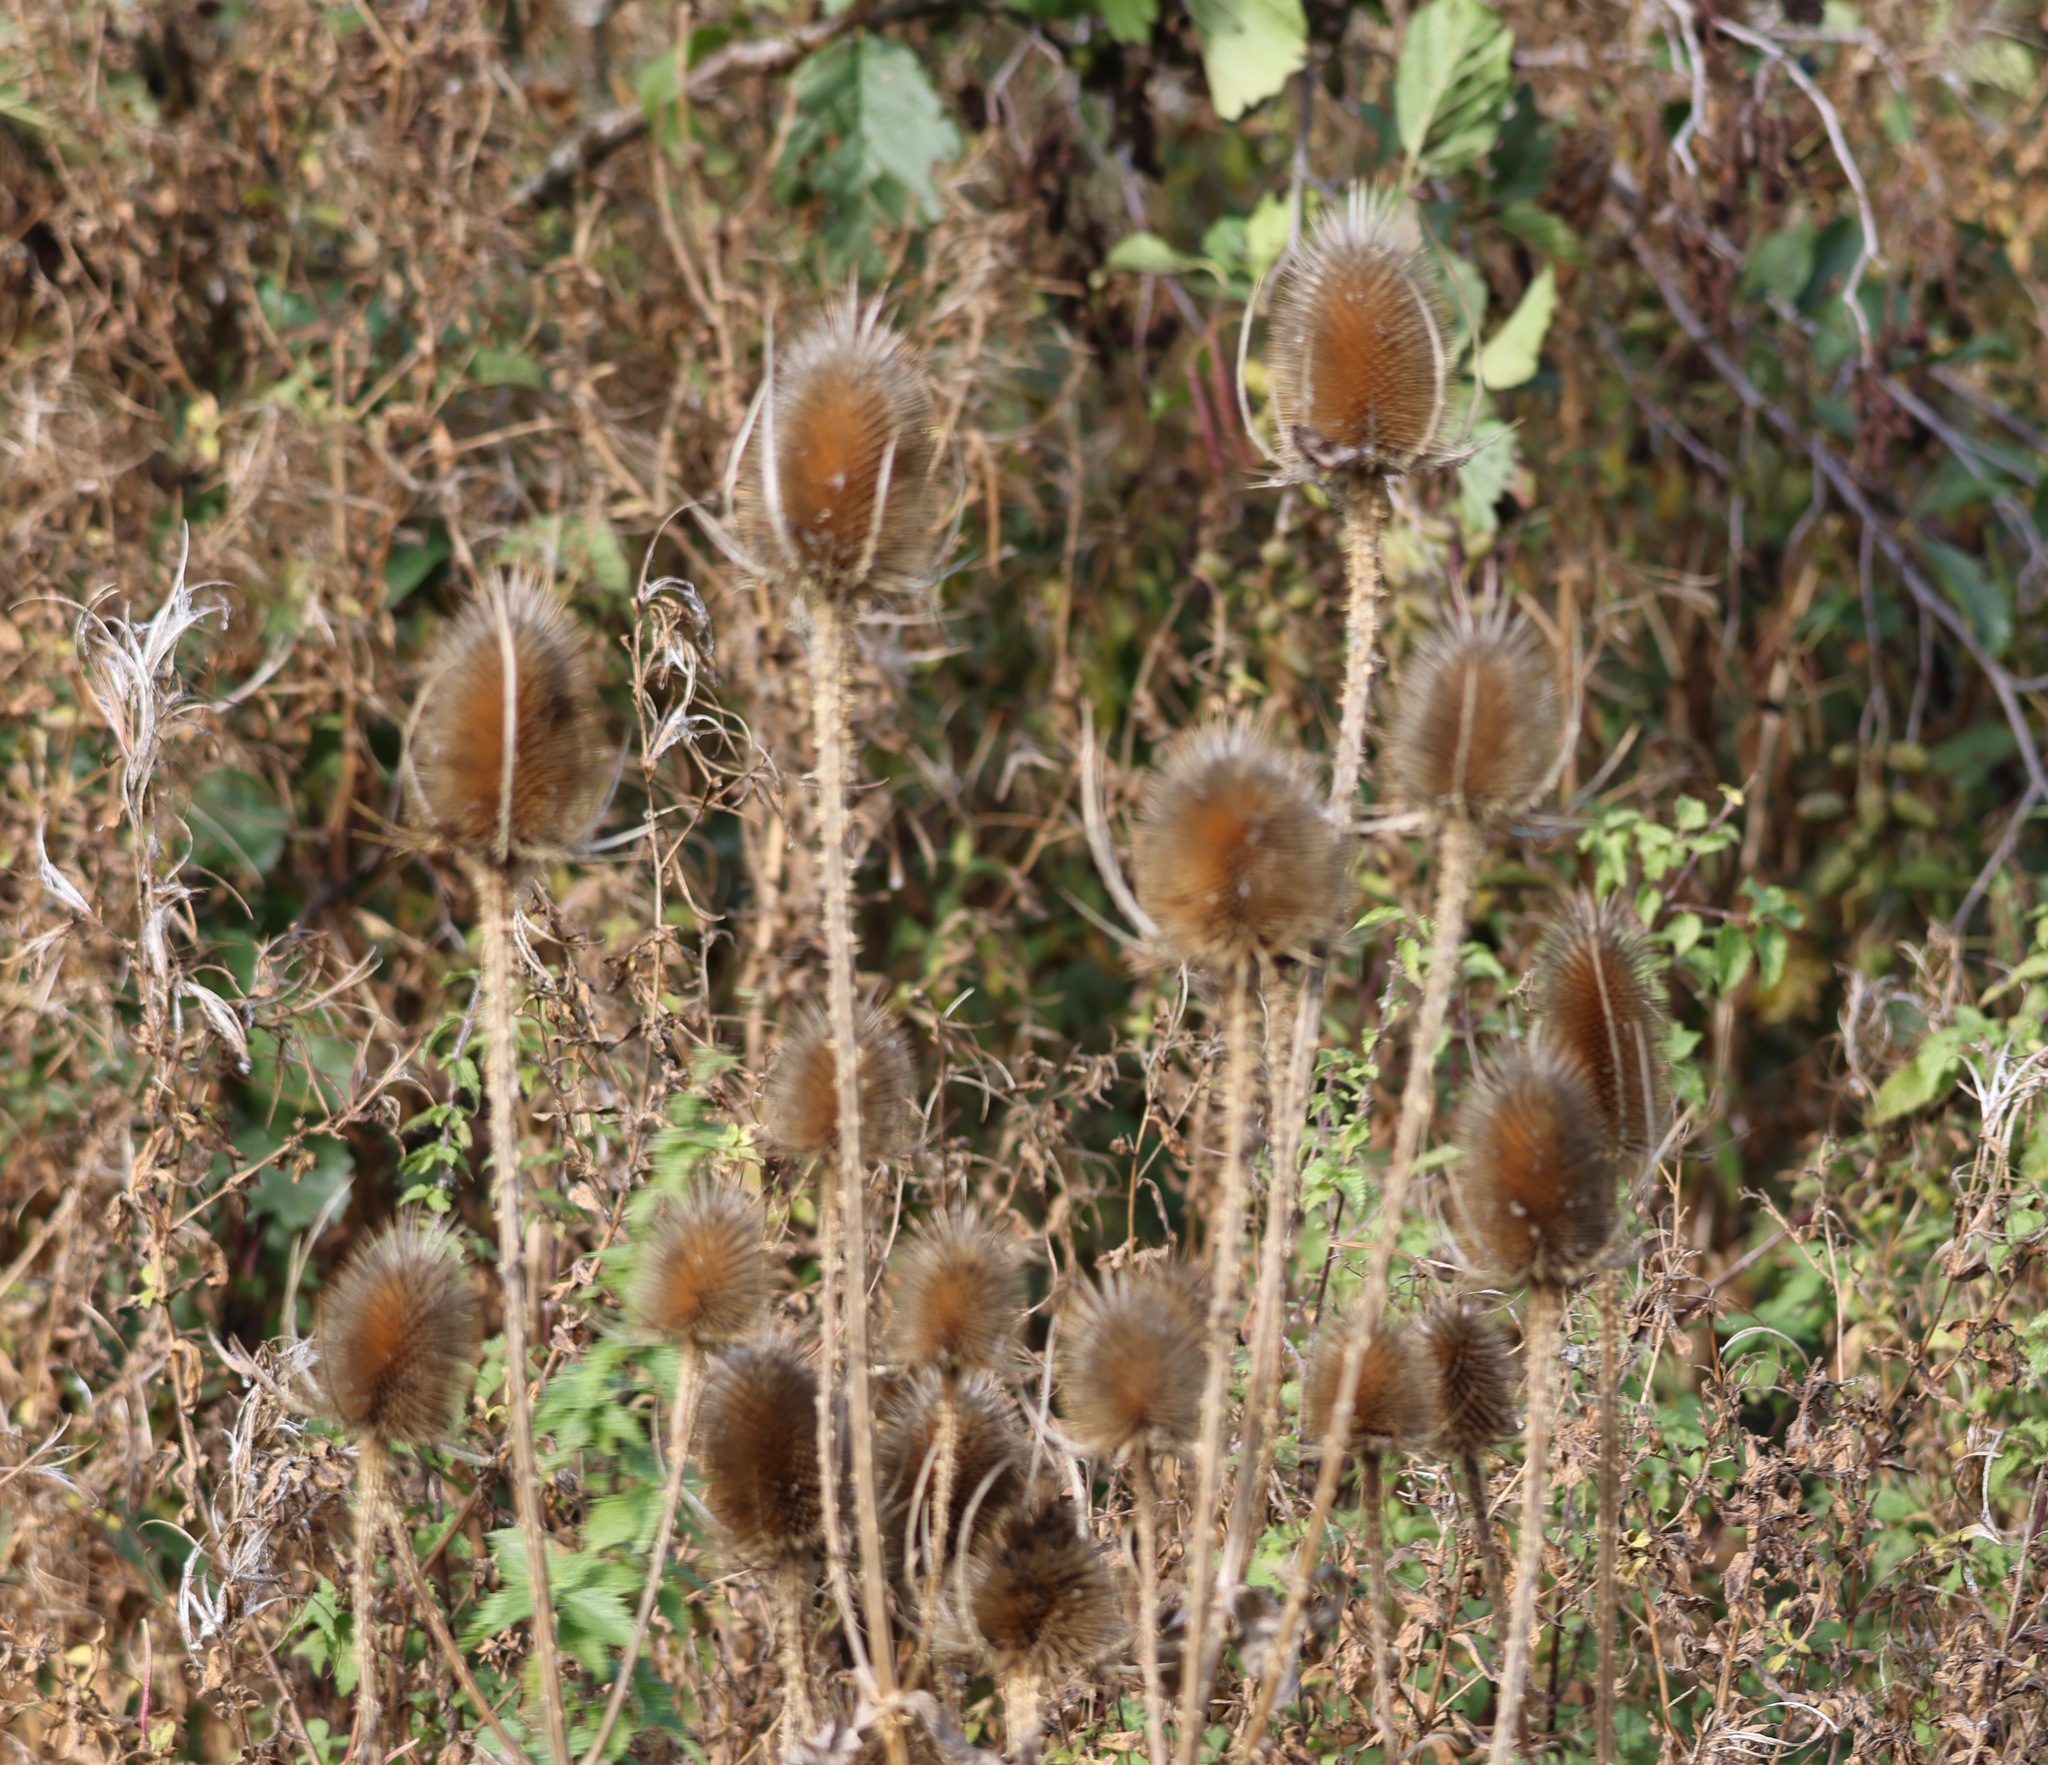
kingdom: Plantae
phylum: Tracheophyta
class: Magnoliopsida
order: Dipsacales
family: Caprifoliaceae
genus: Dipsacus
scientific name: Dipsacus fullonum
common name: Teasel
